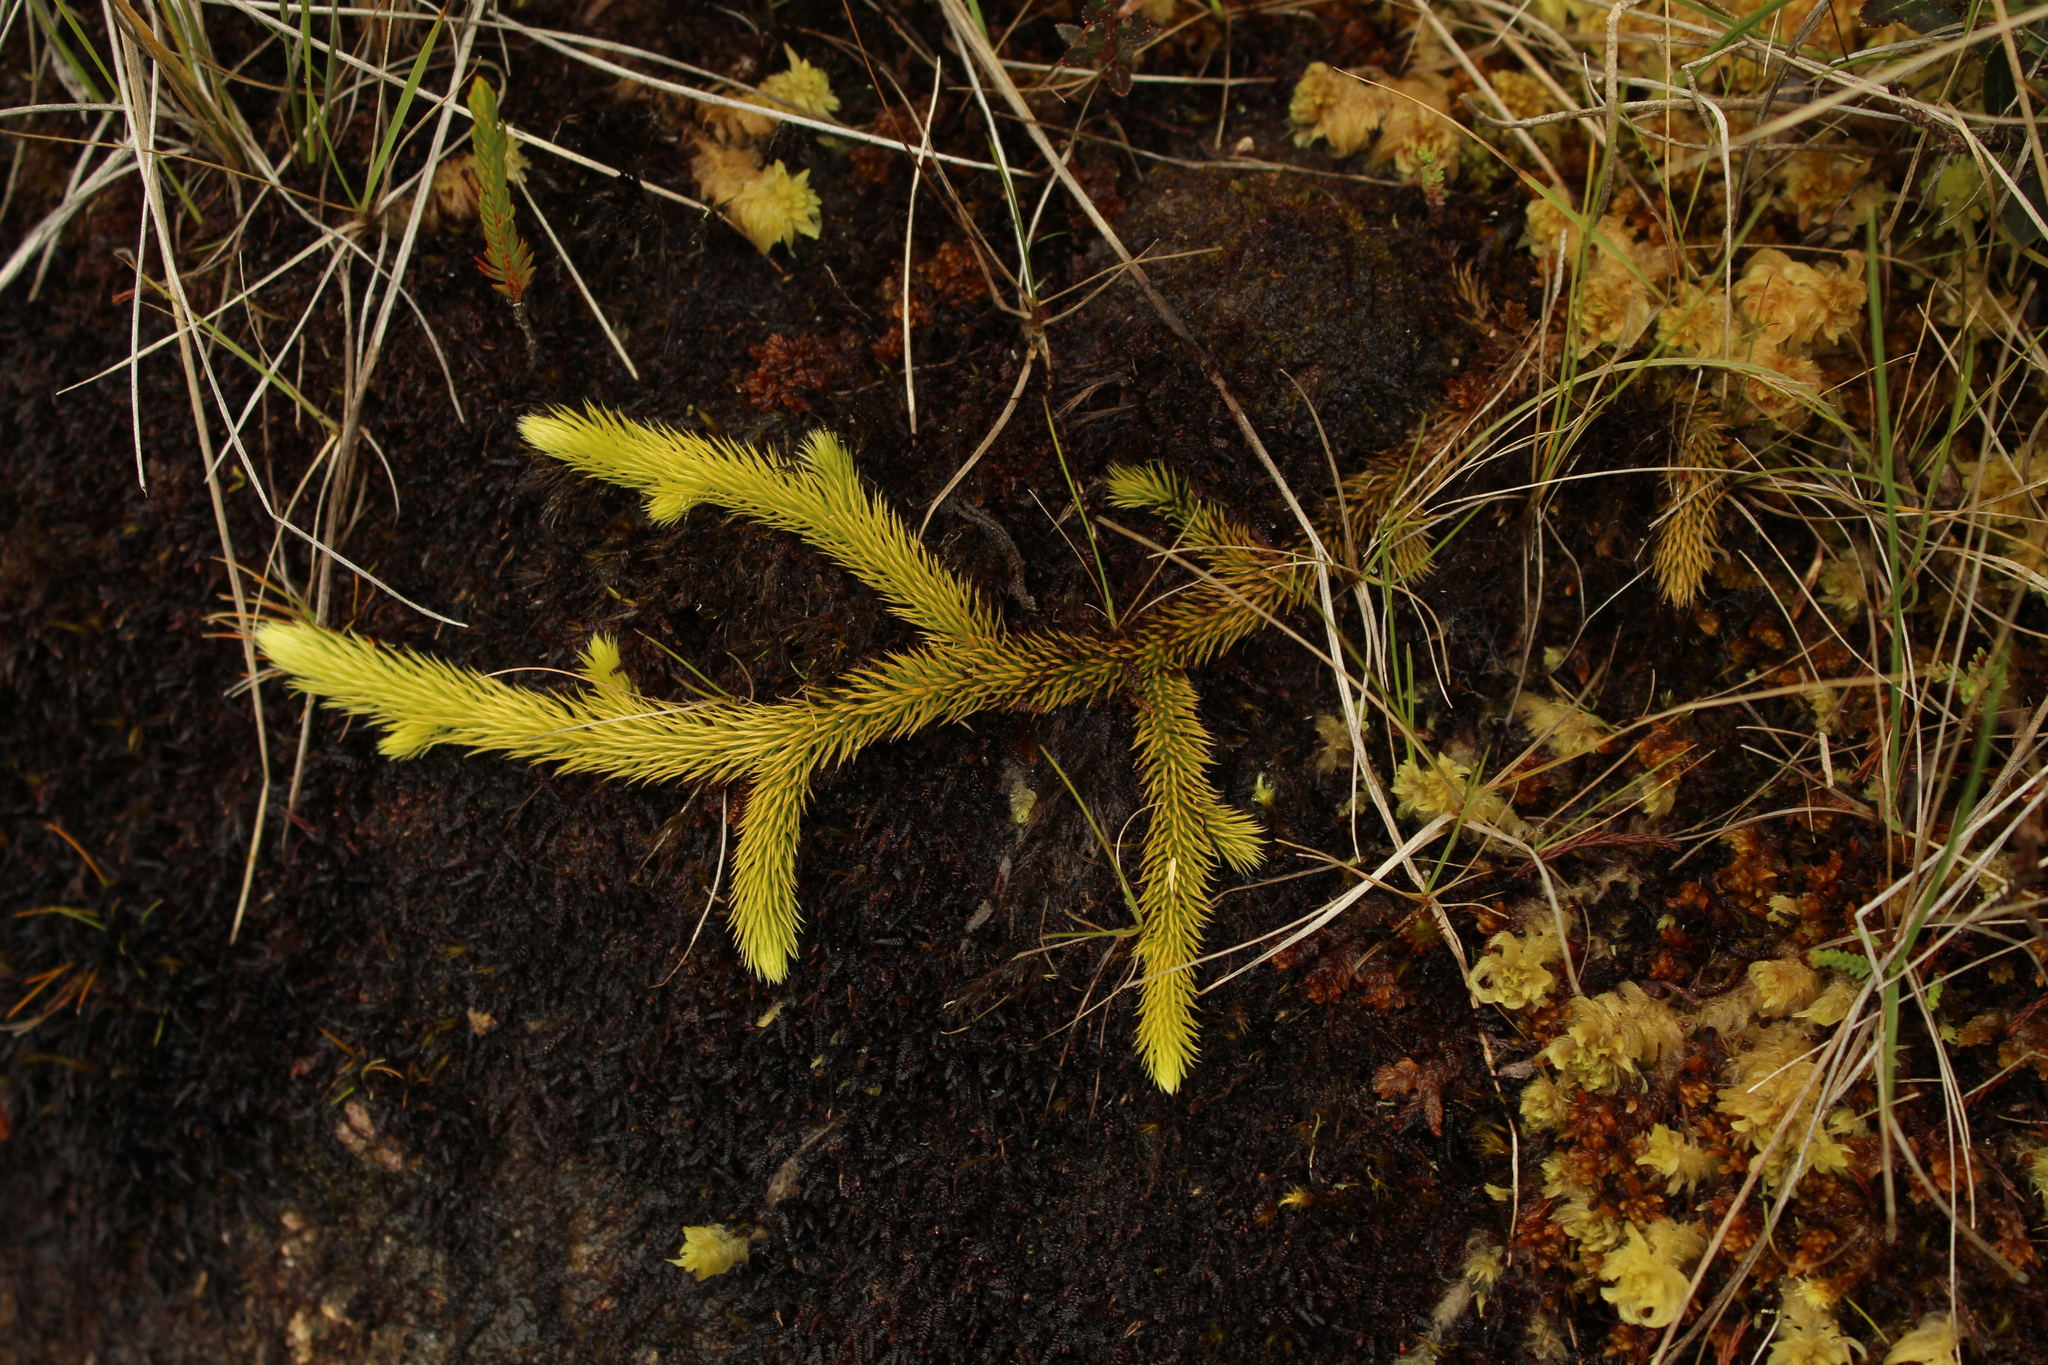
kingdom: Plantae
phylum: Tracheophyta
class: Lycopodiopsida
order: Lycopodiales
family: Lycopodiaceae
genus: Lycopodium
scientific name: Lycopodium clavatum
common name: Stag's-horn clubmoss
